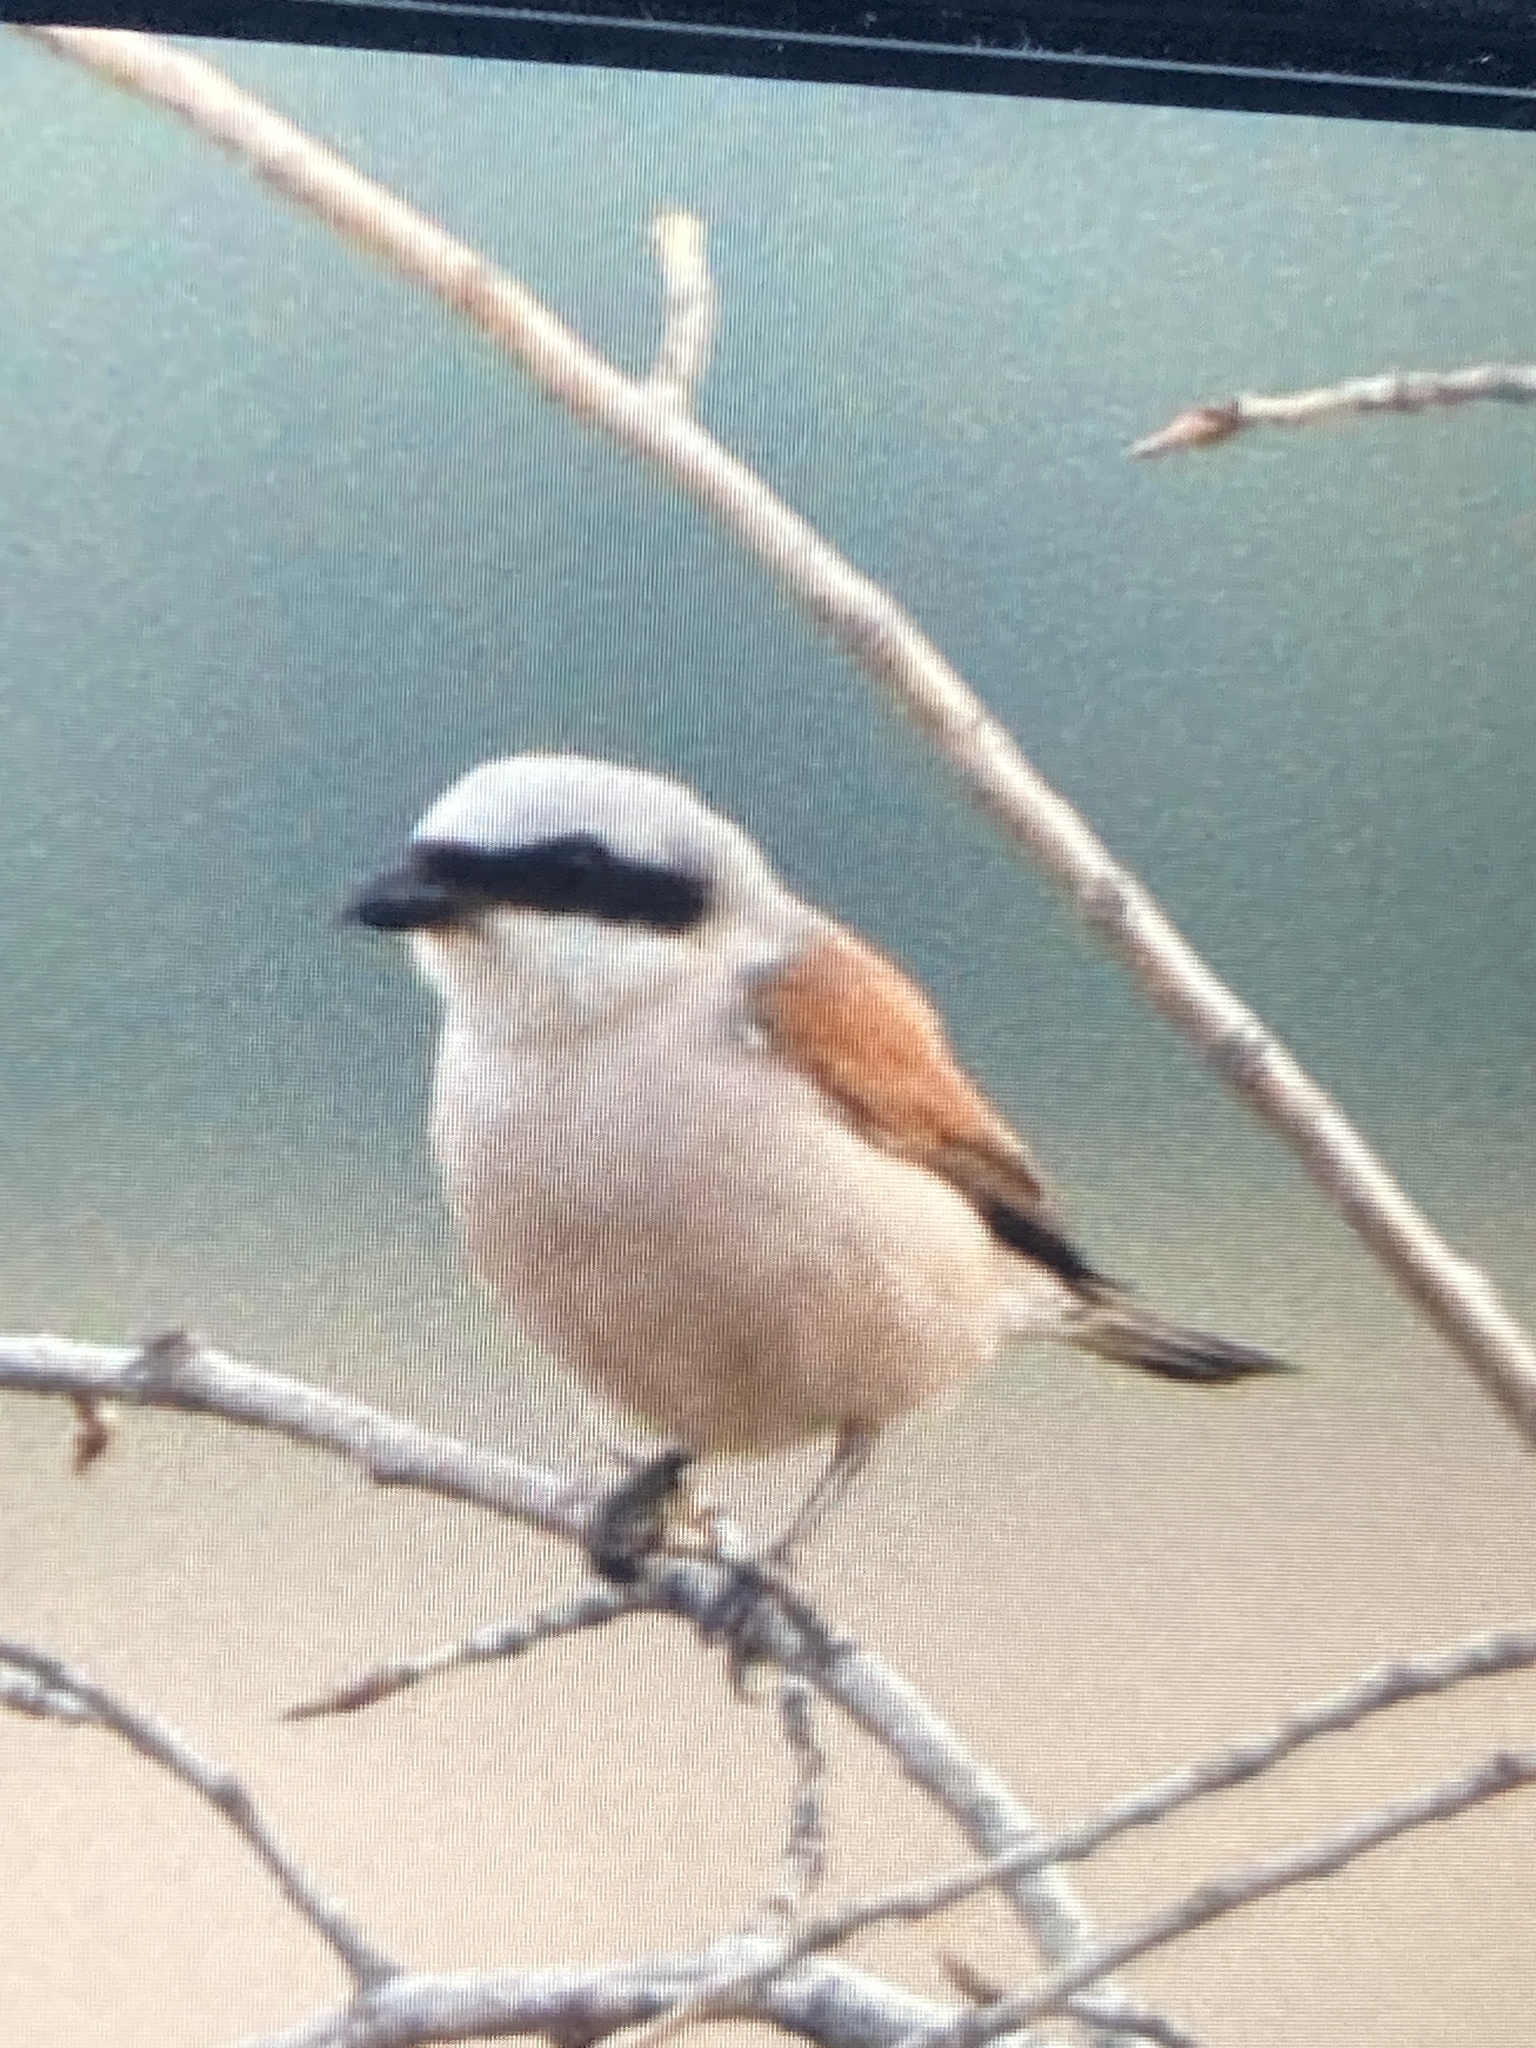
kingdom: Animalia
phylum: Chordata
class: Aves
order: Passeriformes
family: Laniidae
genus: Lanius
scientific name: Lanius collurio
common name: Red-backed shrike
